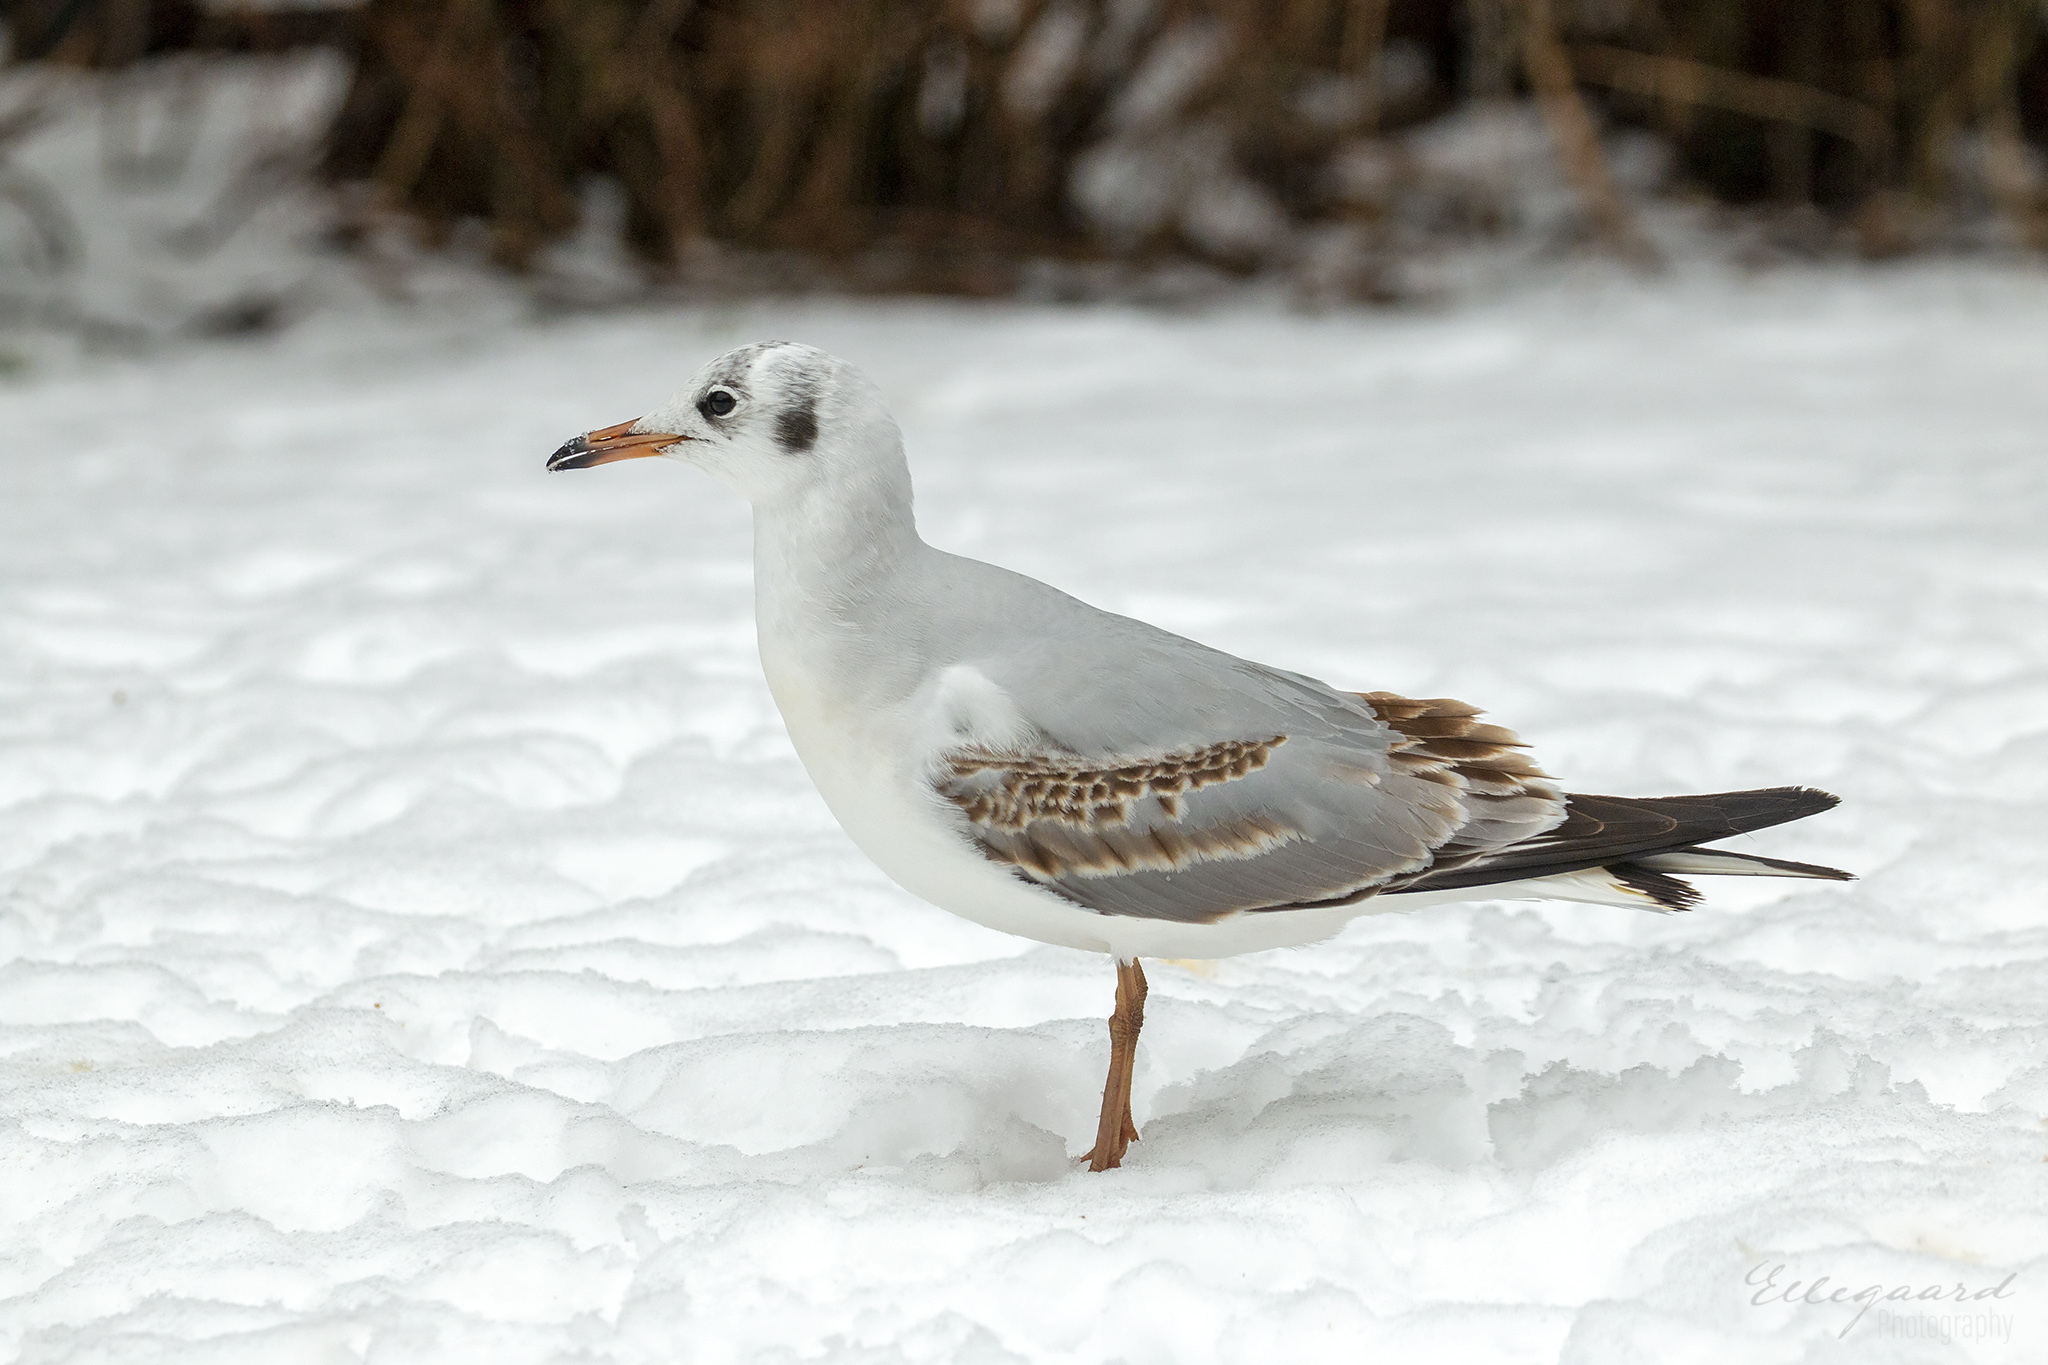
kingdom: Animalia
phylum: Chordata
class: Aves
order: Charadriiformes
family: Laridae
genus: Chroicocephalus
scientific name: Chroicocephalus ridibundus
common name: Black-headed gull
